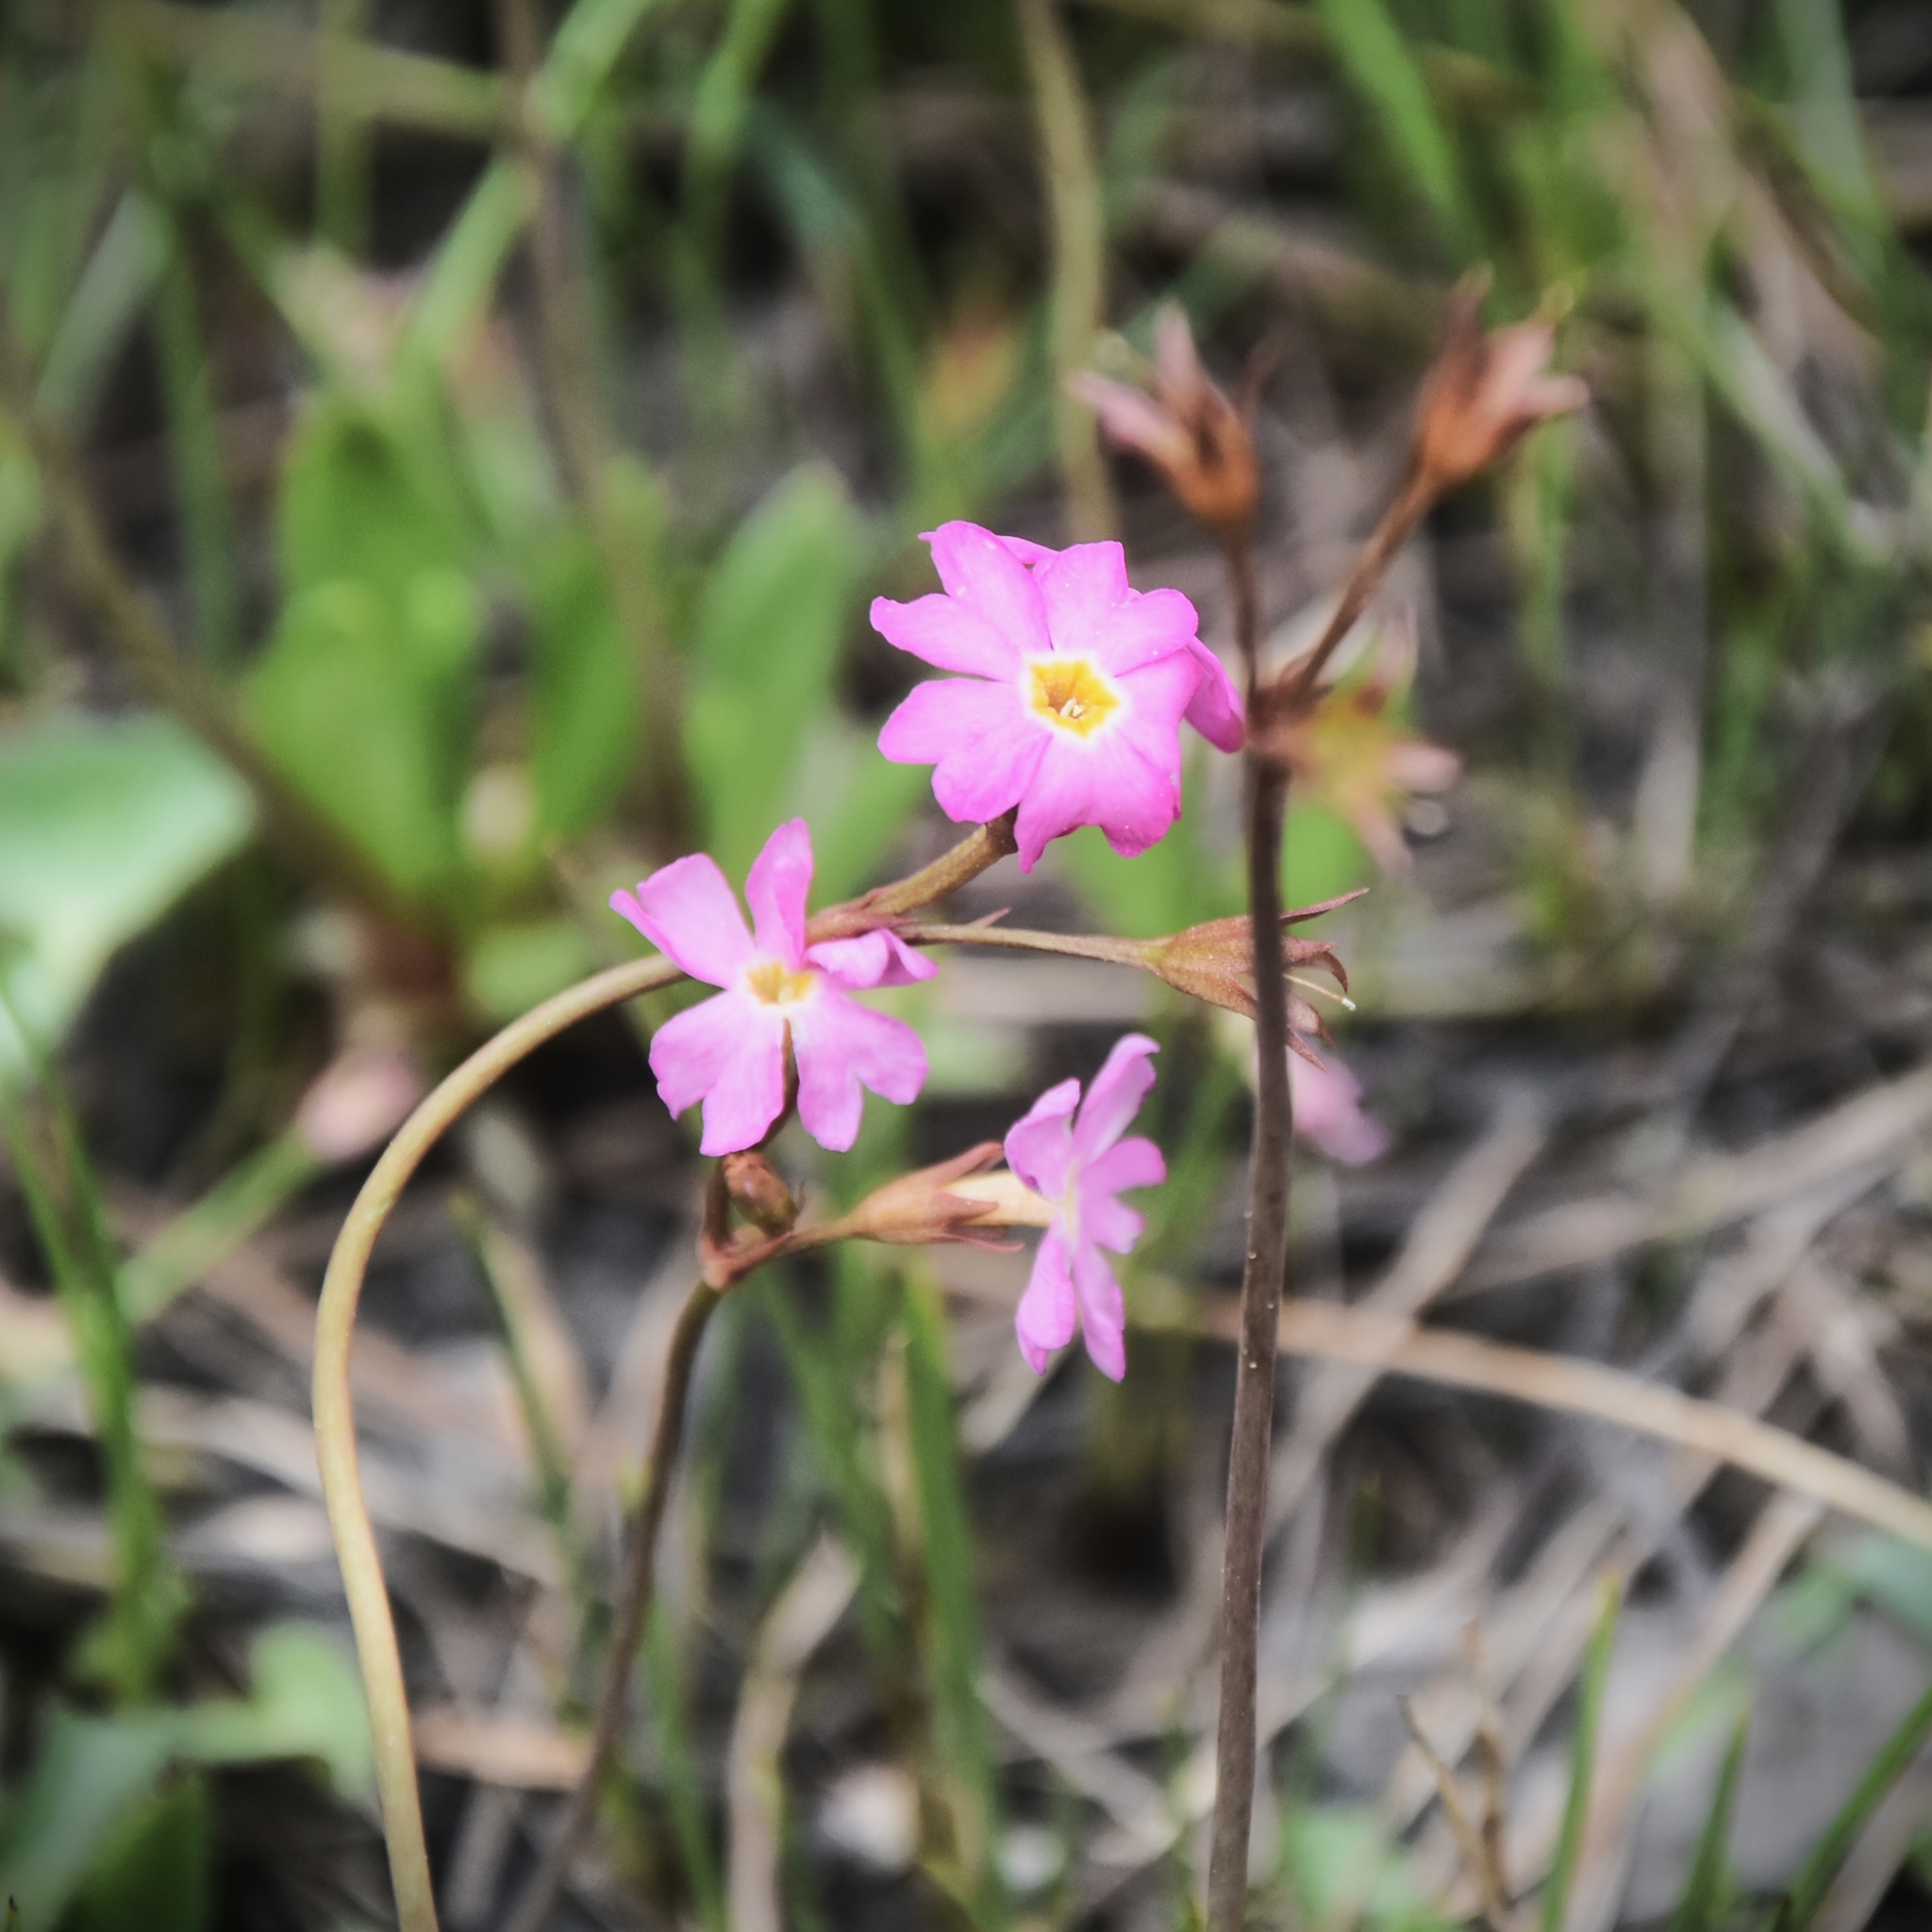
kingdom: Plantae
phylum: Tracheophyta
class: Magnoliopsida
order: Ericales
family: Primulaceae
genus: Primula
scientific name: Primula rosea
